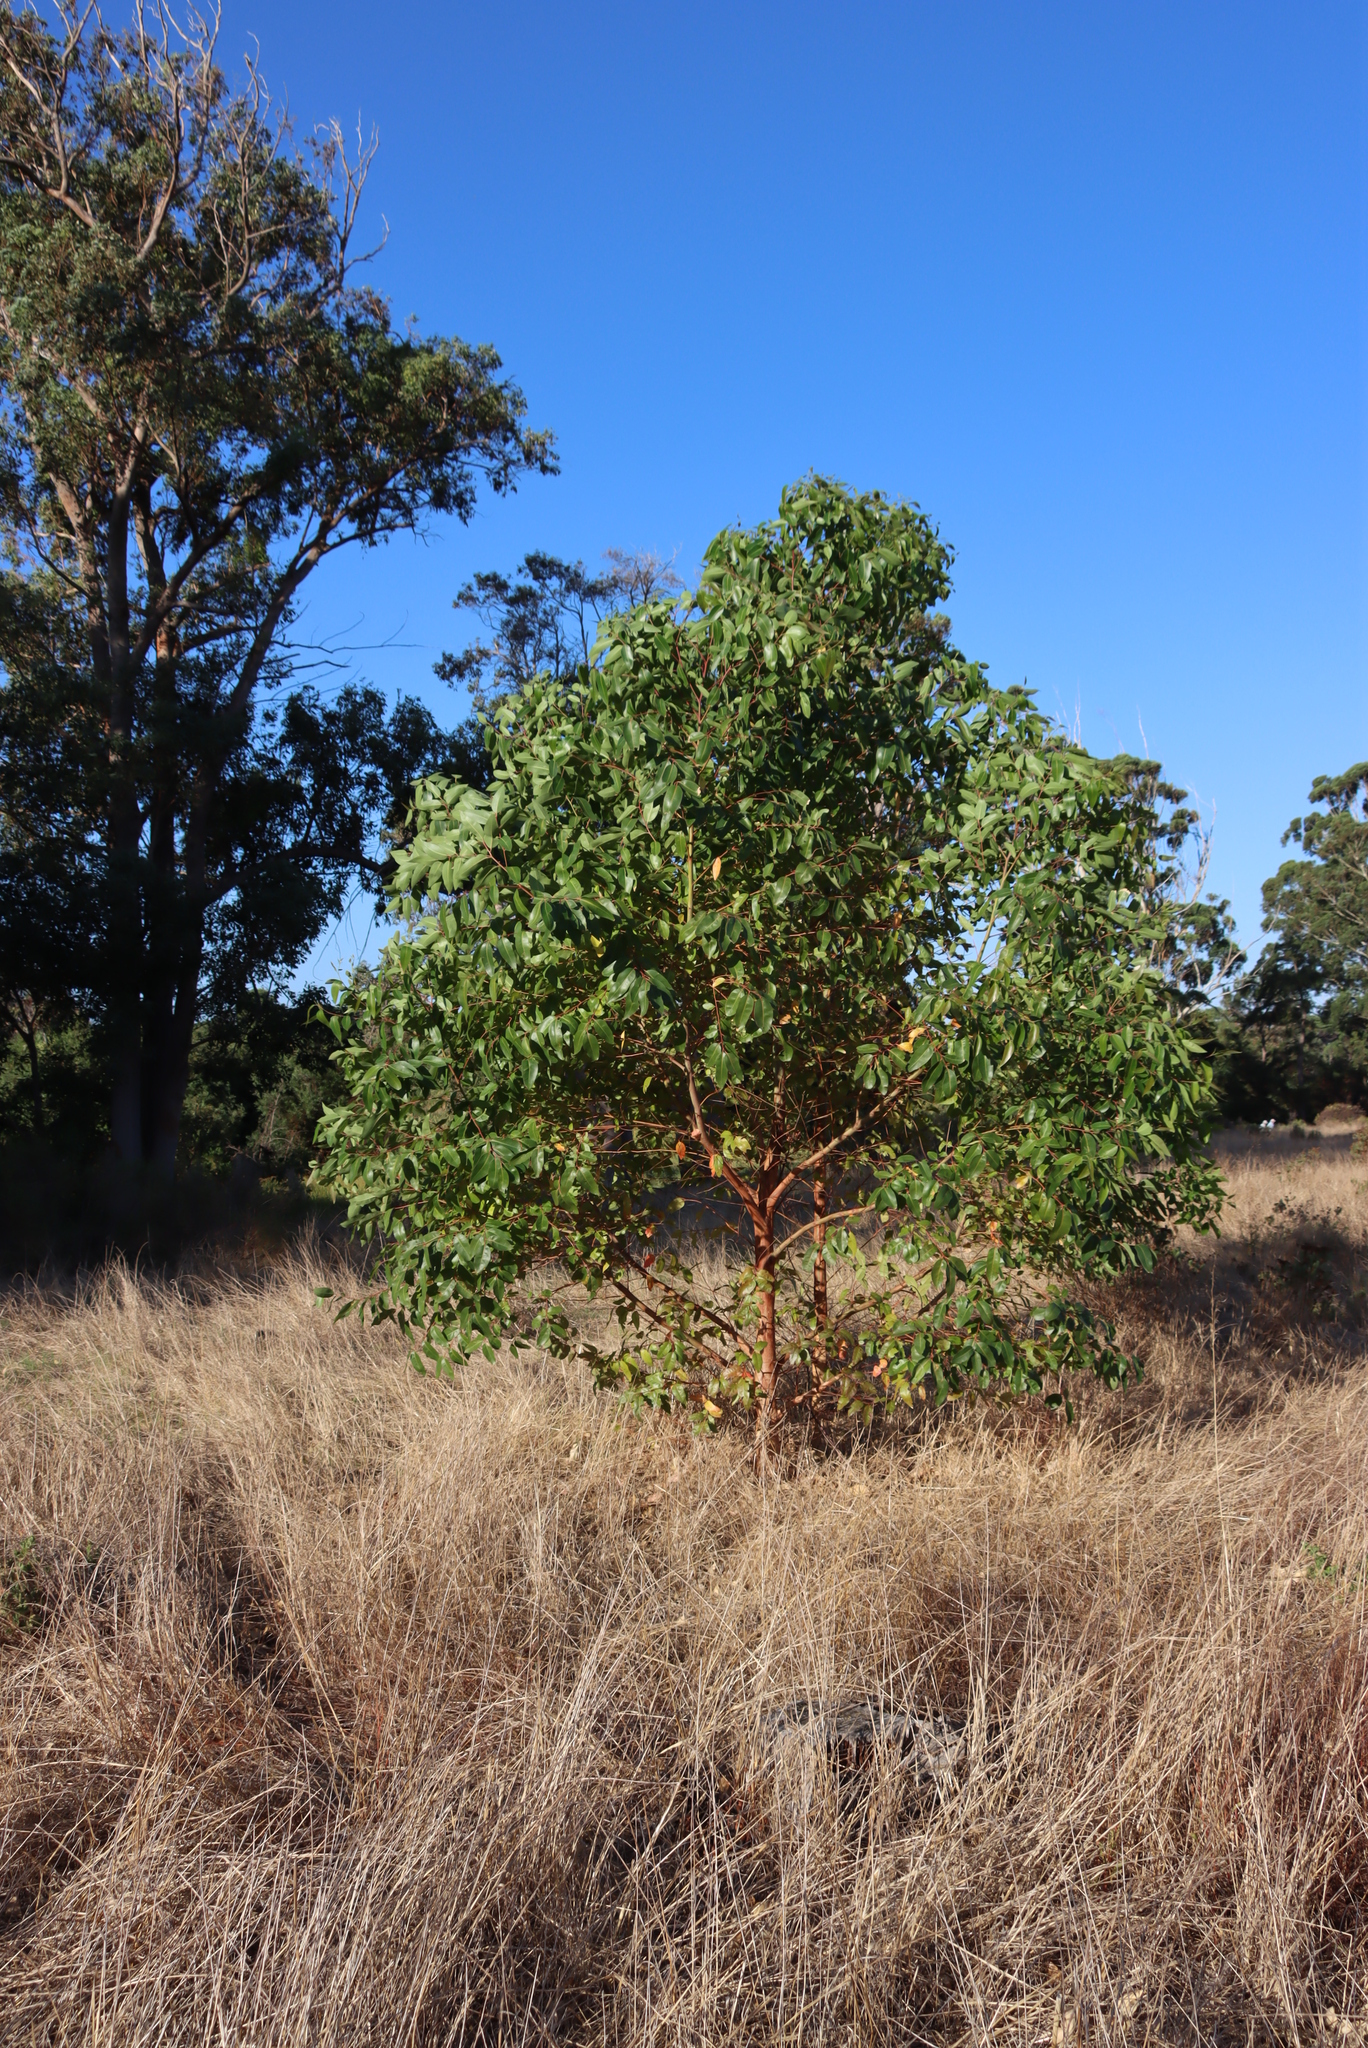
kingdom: Plantae
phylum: Tracheophyta
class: Magnoliopsida
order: Myrtales
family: Myrtaceae
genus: Corymbia
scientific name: Corymbia ficifolia
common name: Redflower gum
